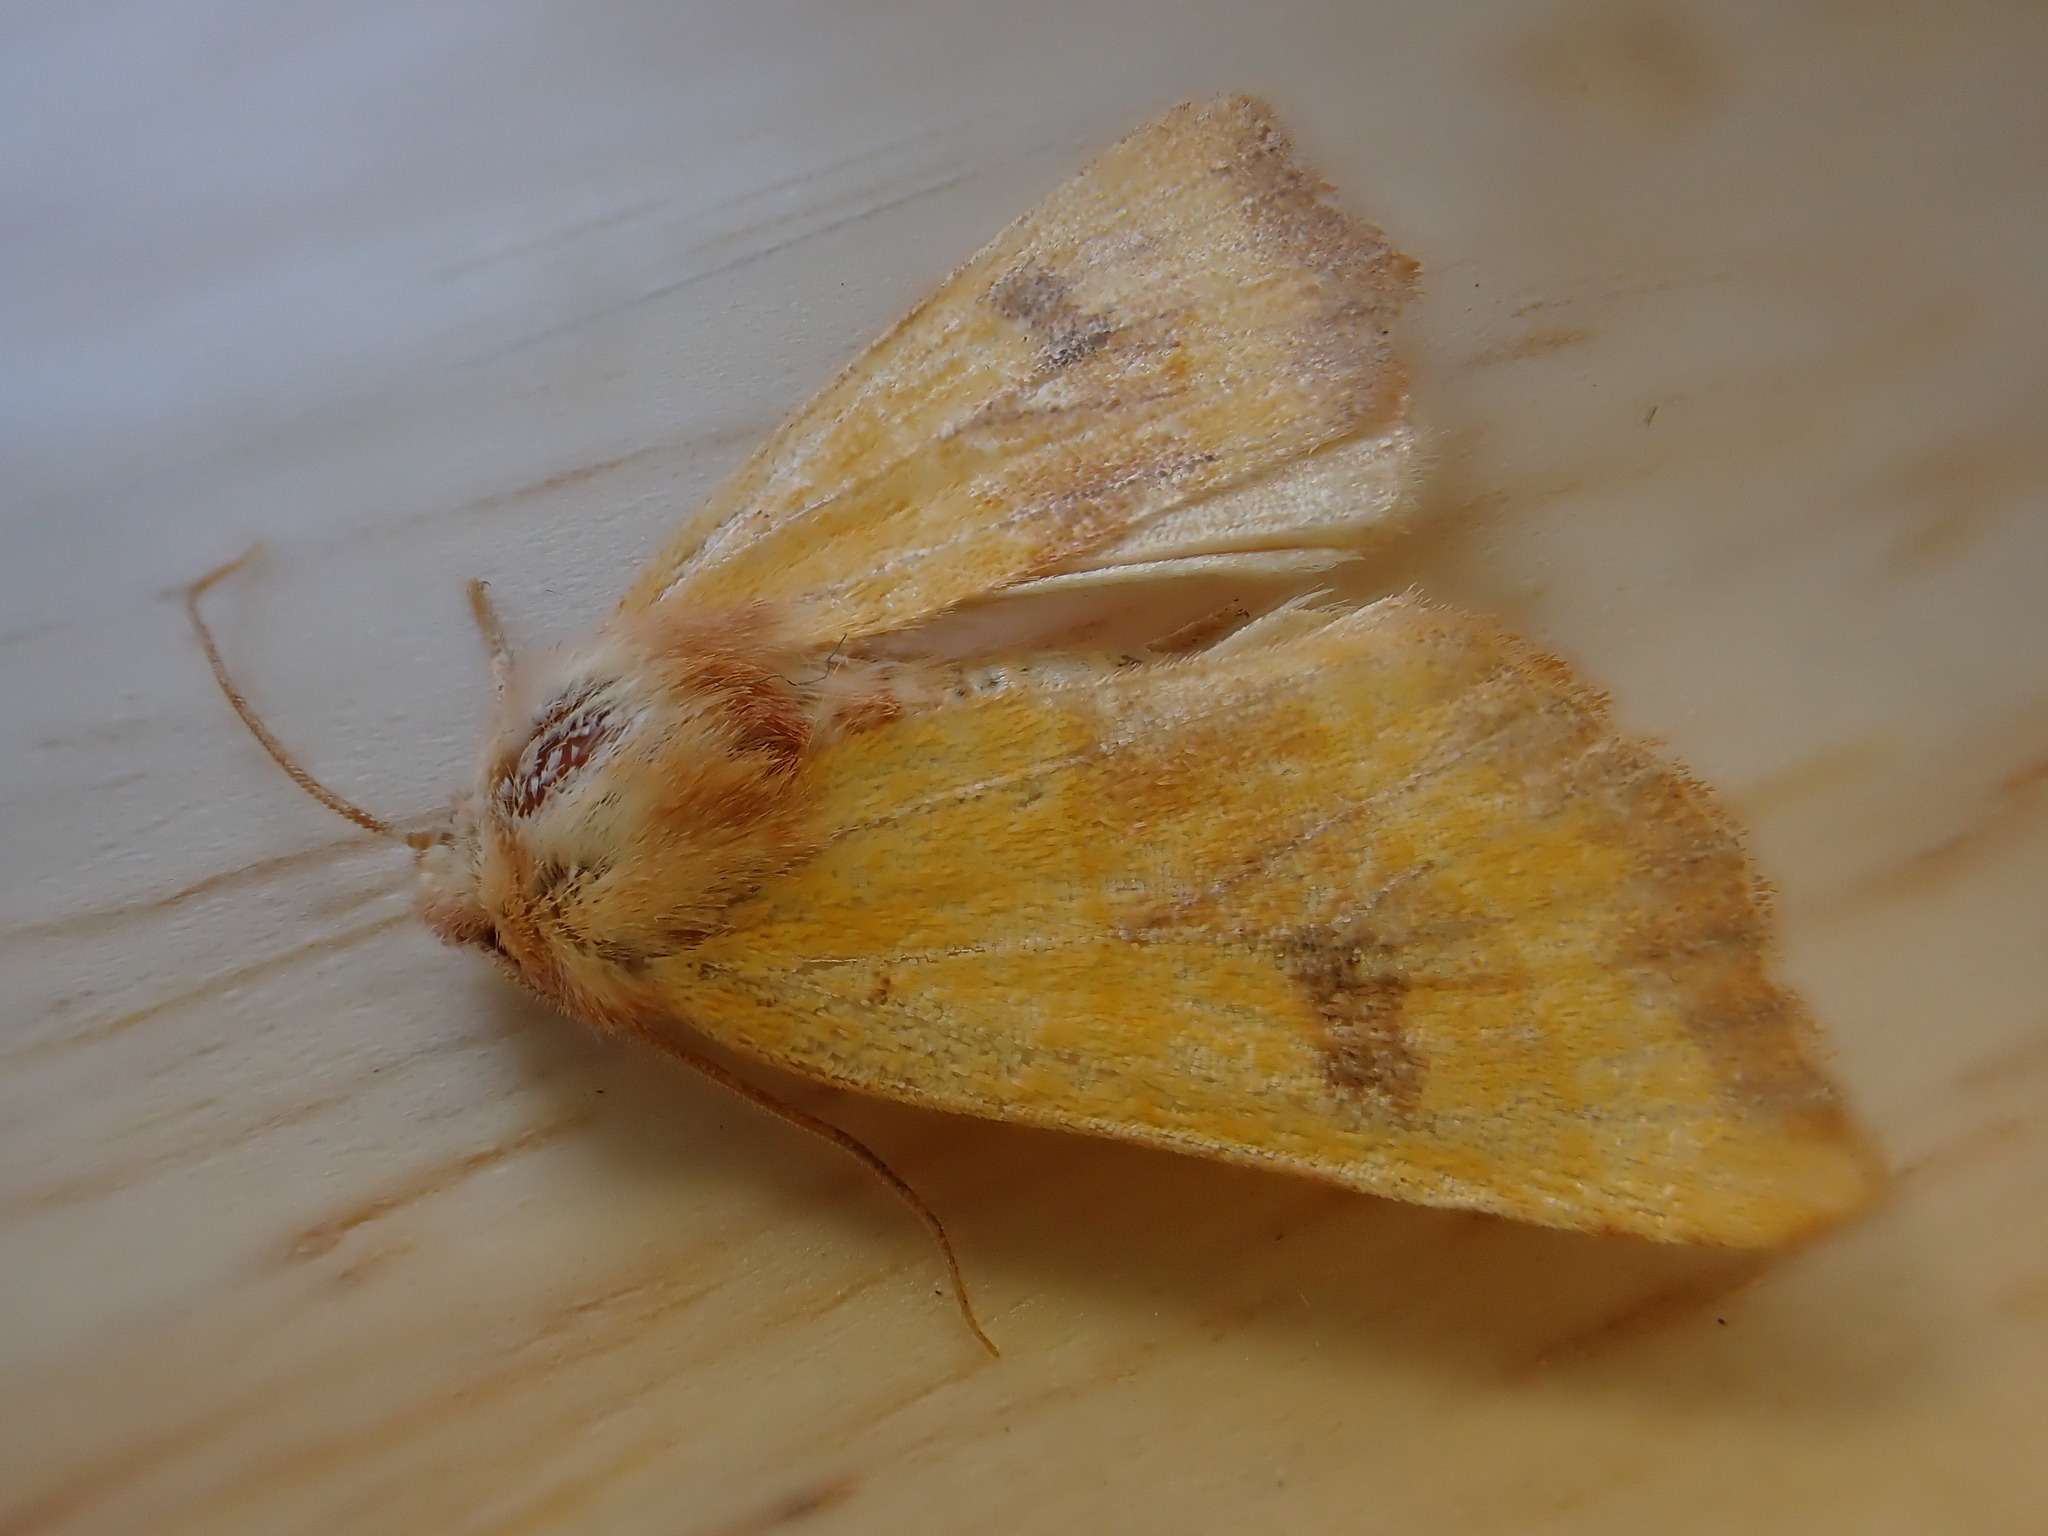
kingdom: Animalia
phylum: Arthropoda
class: Insecta
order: Lepidoptera
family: Noctuidae
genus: Atethmia
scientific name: Atethmia centrago
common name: Centre-barred sallow
